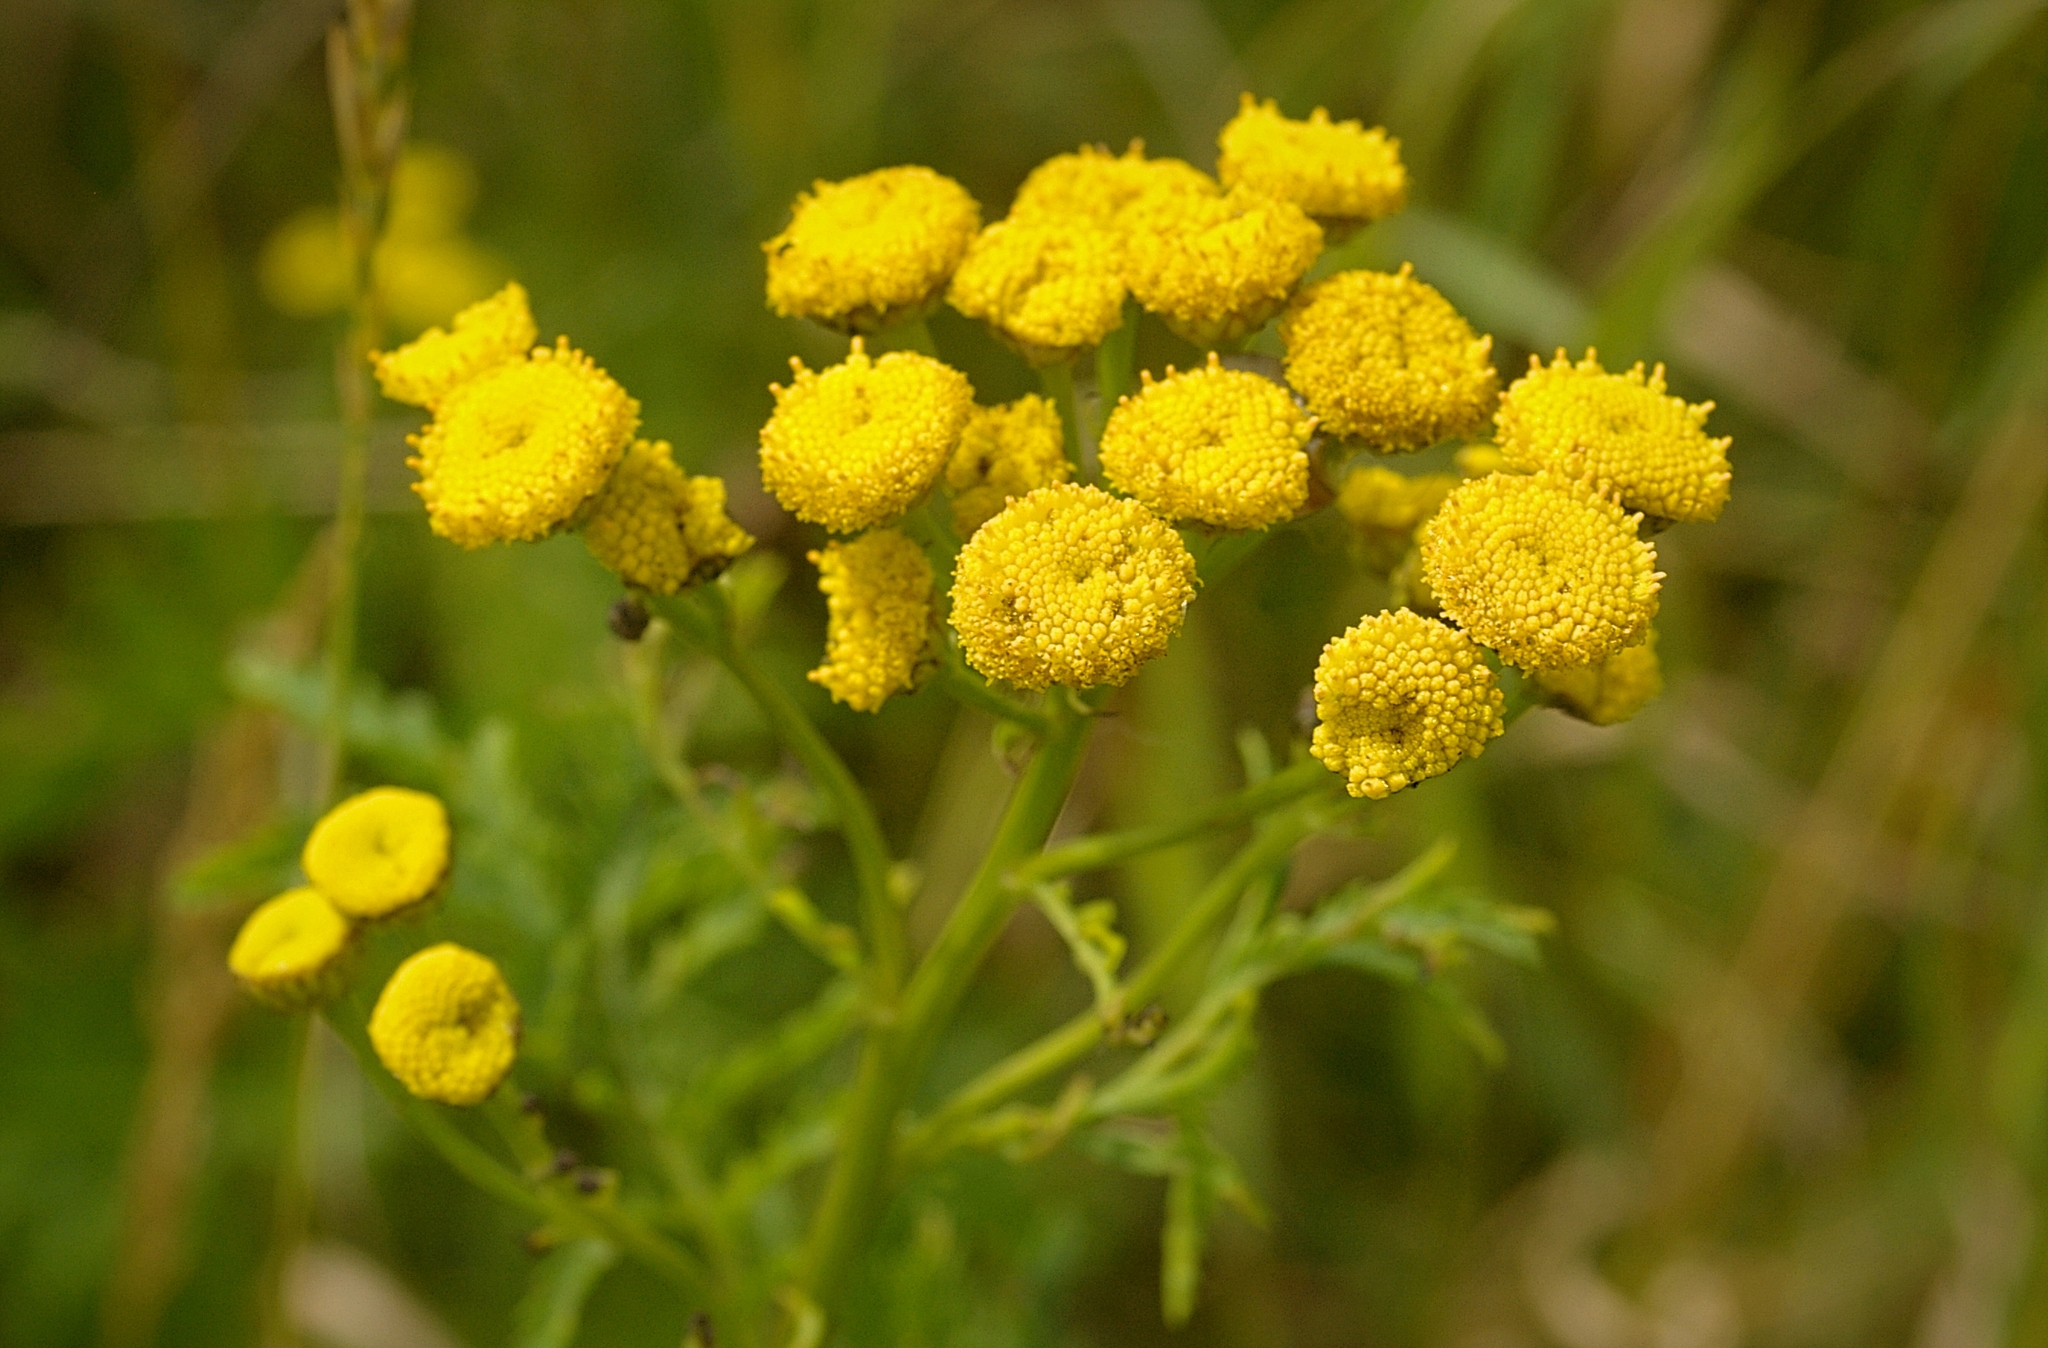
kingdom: Plantae
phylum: Tracheophyta
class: Magnoliopsida
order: Asterales
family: Asteraceae
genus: Tanacetum
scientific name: Tanacetum vulgare
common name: Common tansy
